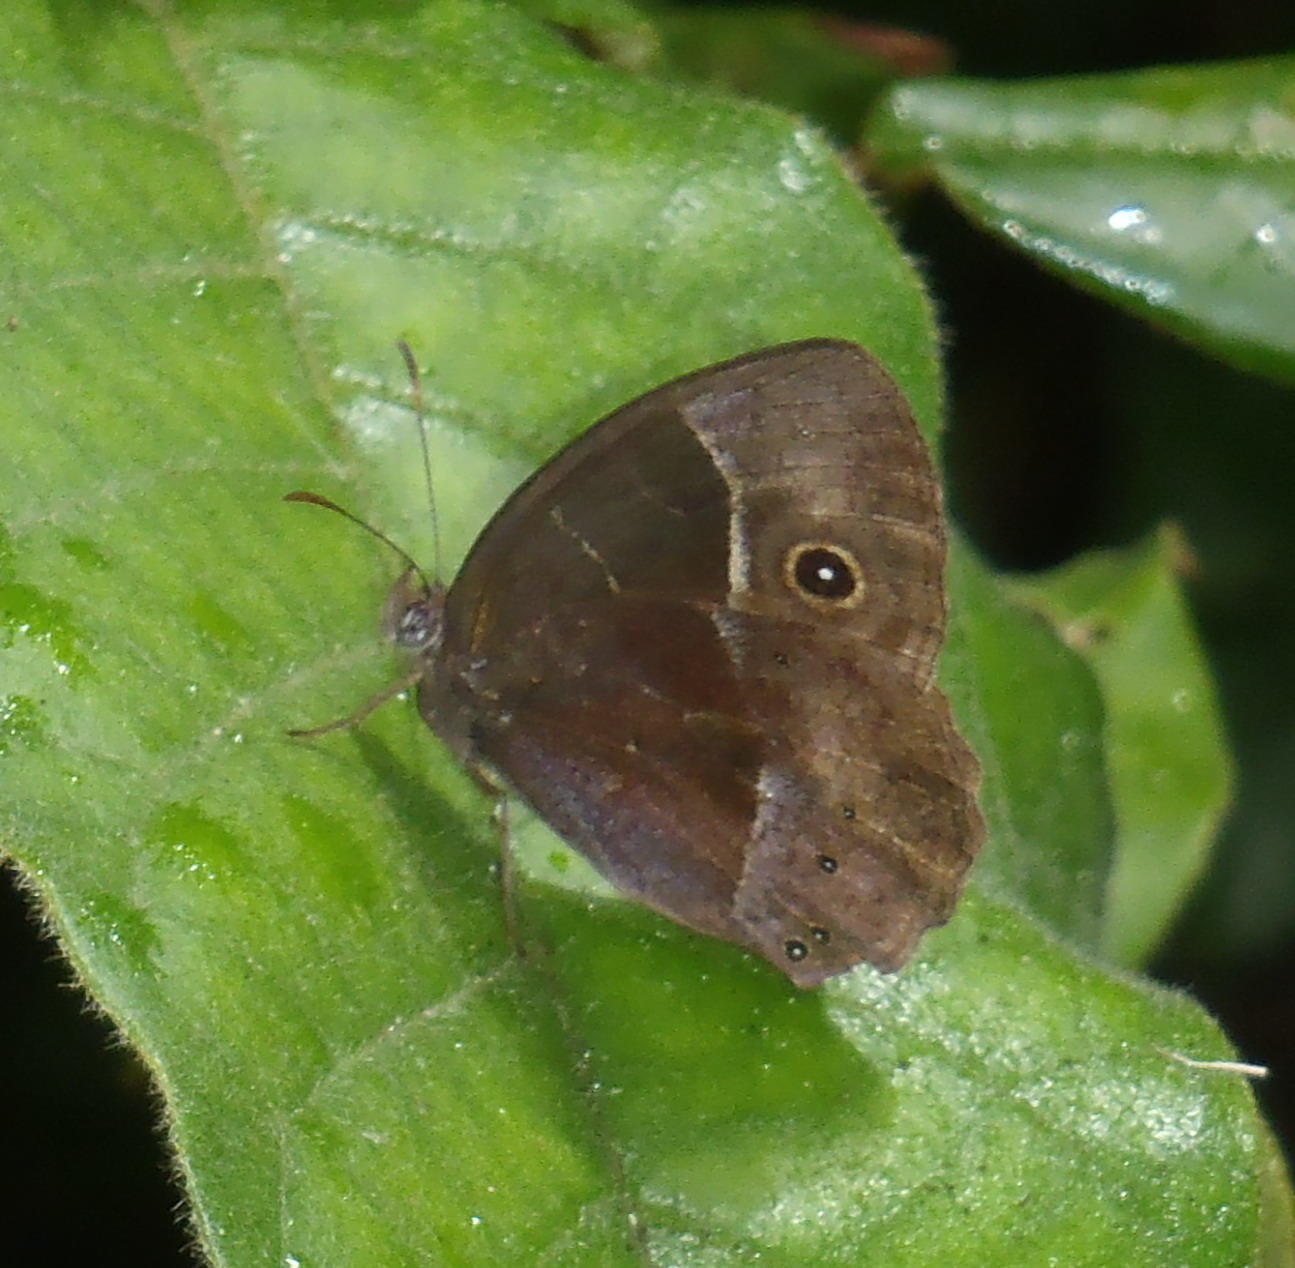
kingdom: Animalia
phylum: Arthropoda
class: Insecta
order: Lepidoptera
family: Nymphalidae
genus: Mycalesis
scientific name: Mycalesis rhacotis
